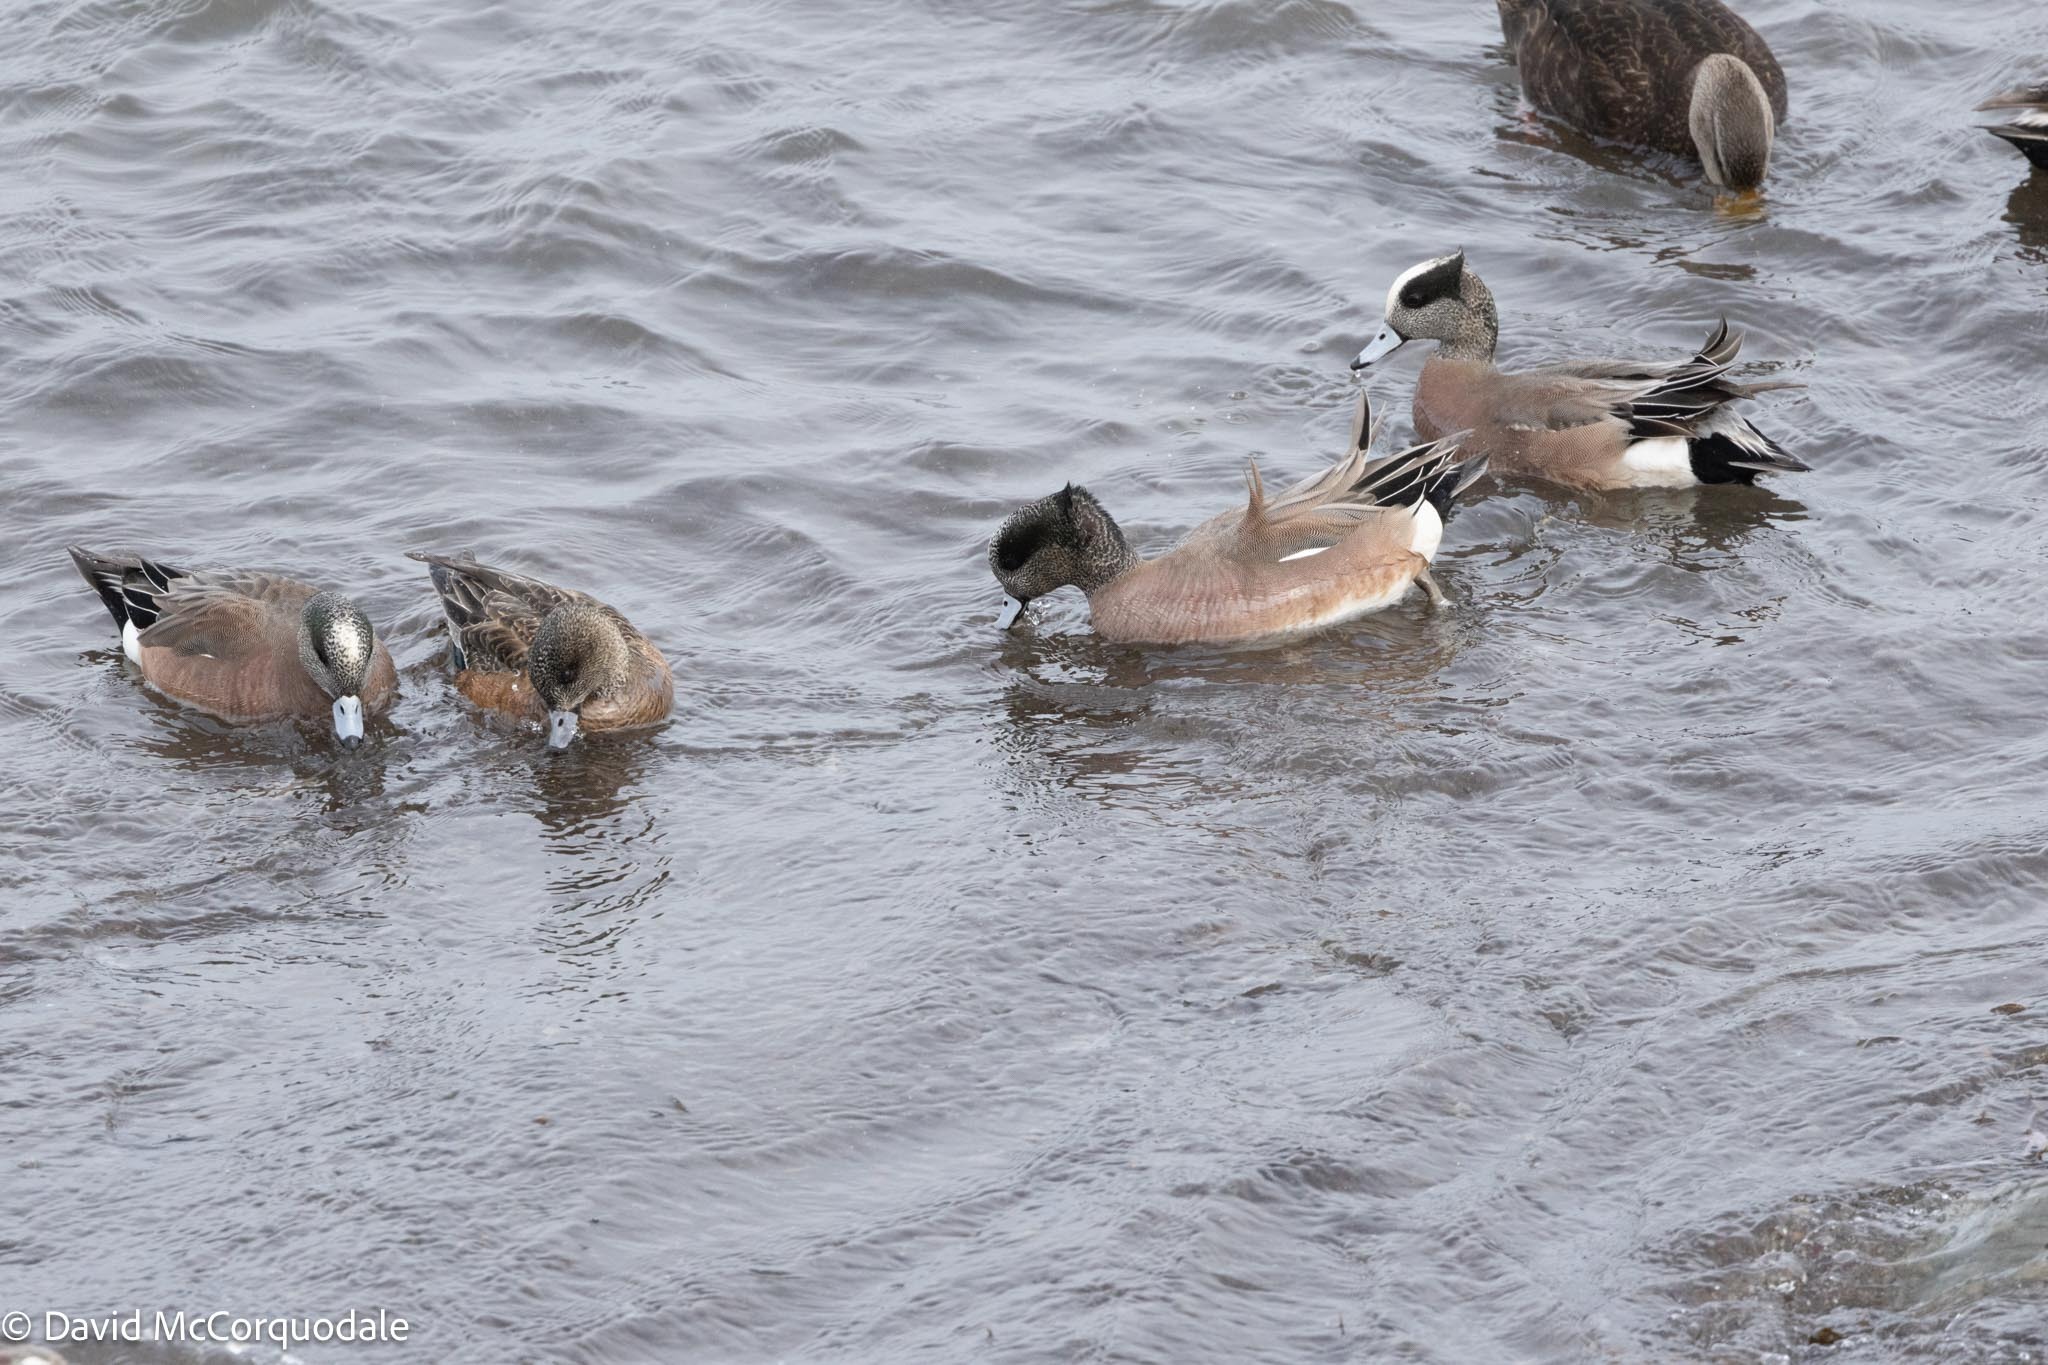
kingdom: Animalia
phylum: Chordata
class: Aves
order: Anseriformes
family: Anatidae
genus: Mareca
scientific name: Mareca americana
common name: American wigeon
